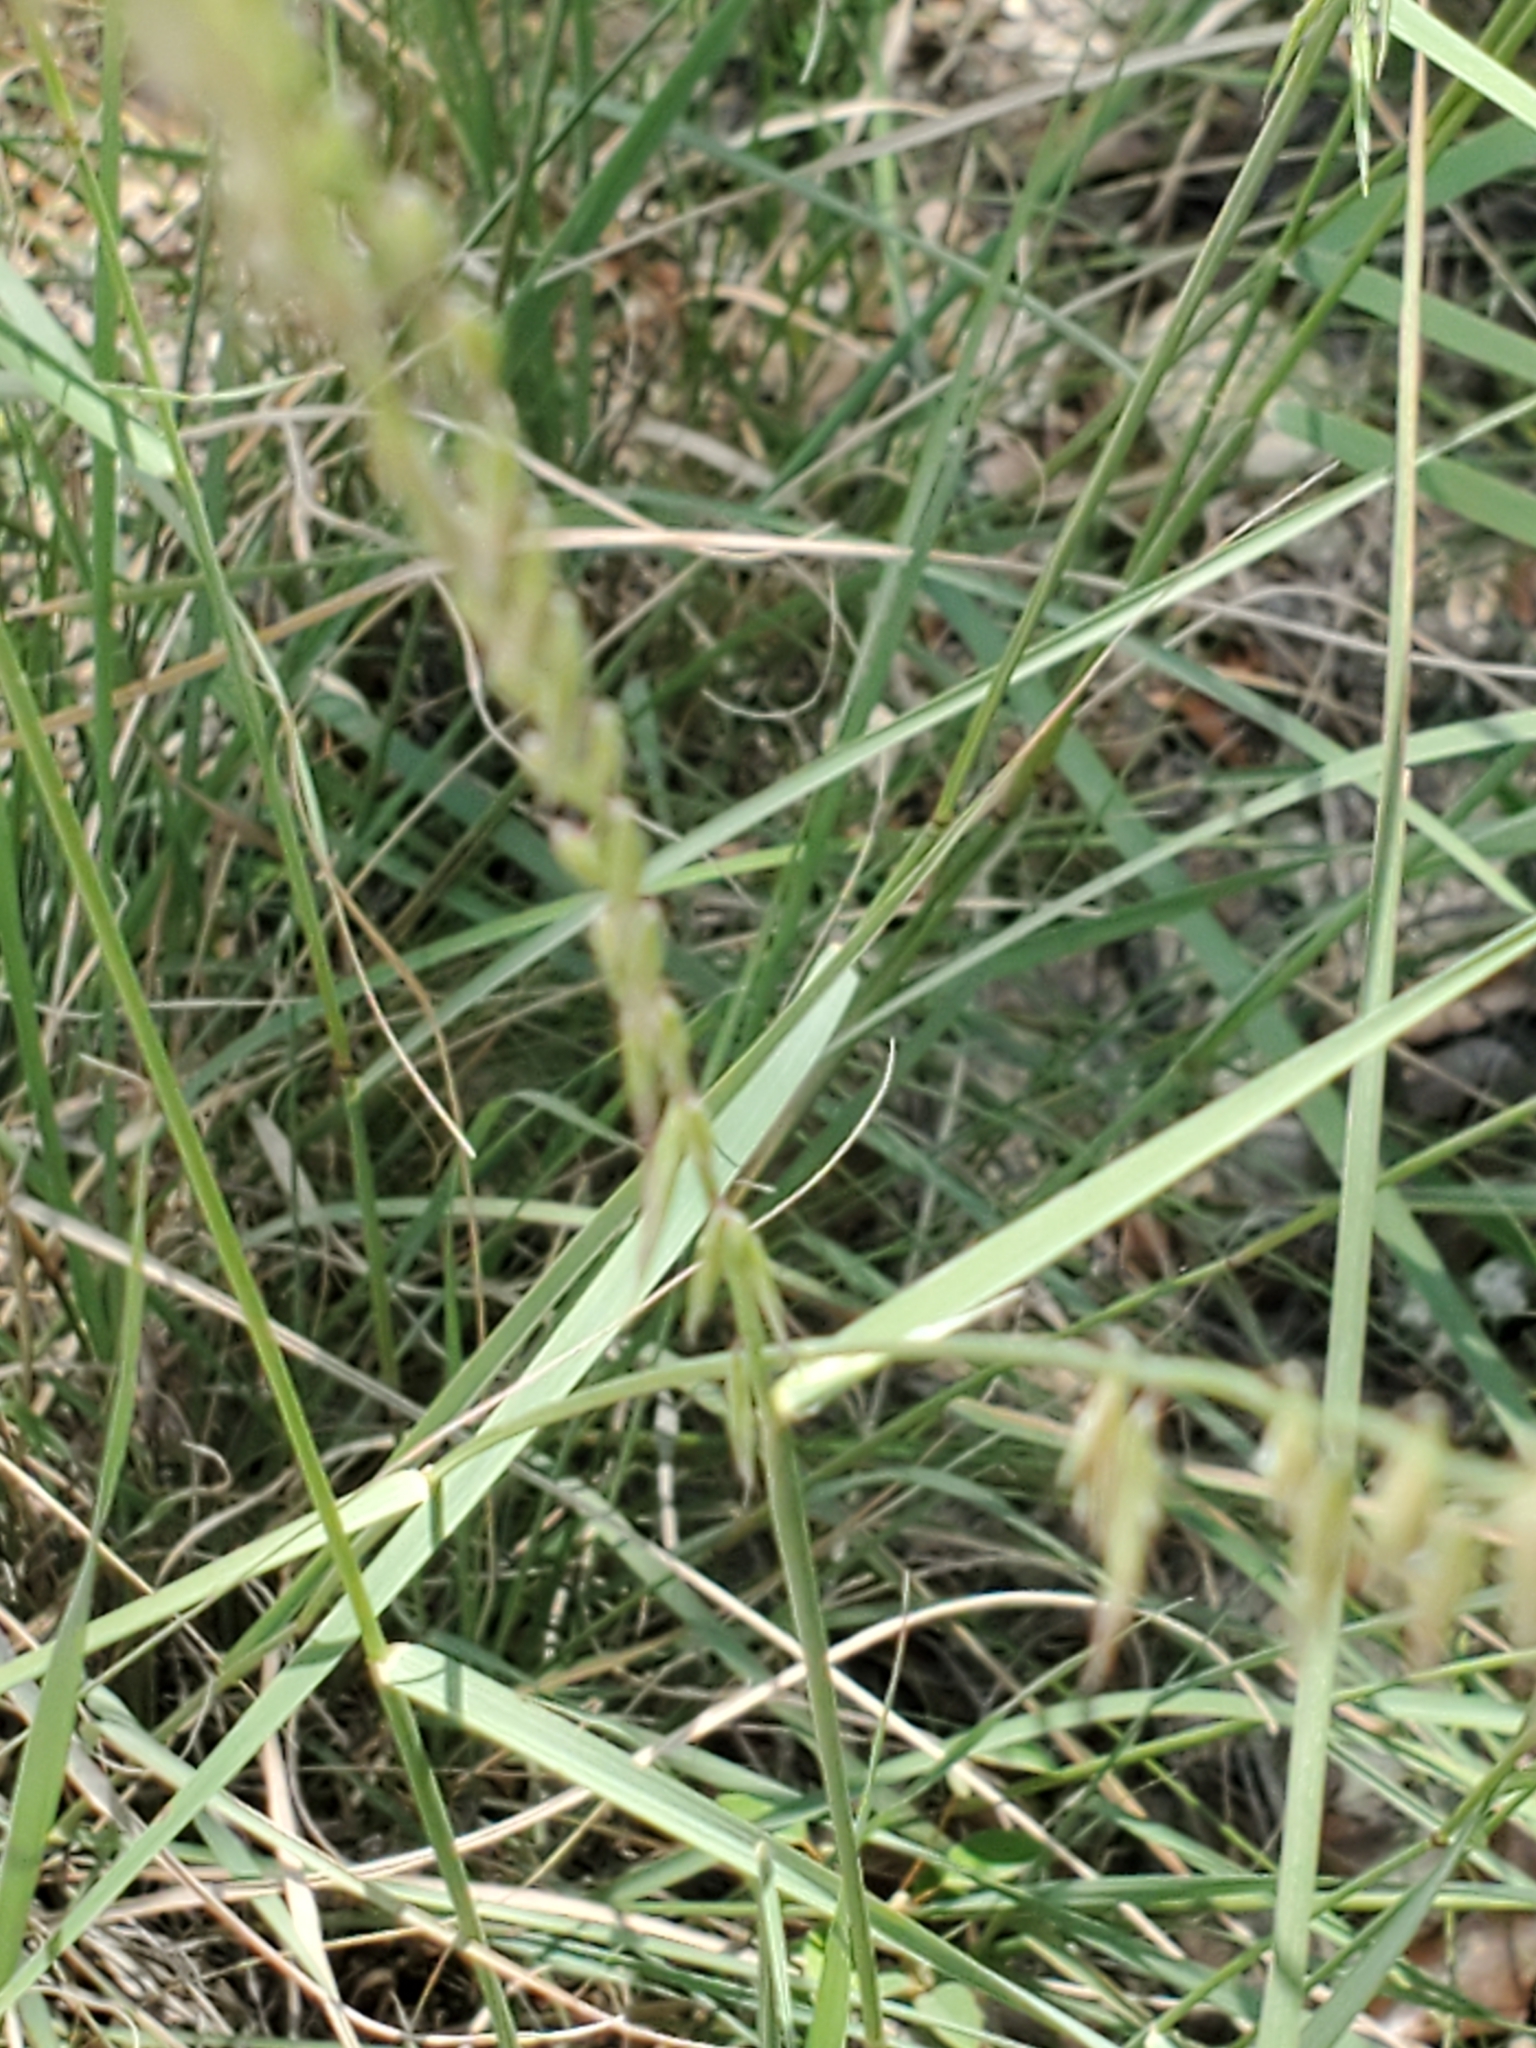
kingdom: Plantae
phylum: Tracheophyta
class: Liliopsida
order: Poales
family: Poaceae
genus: Bouteloua
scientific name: Bouteloua curtipendula
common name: Side-oats grama
